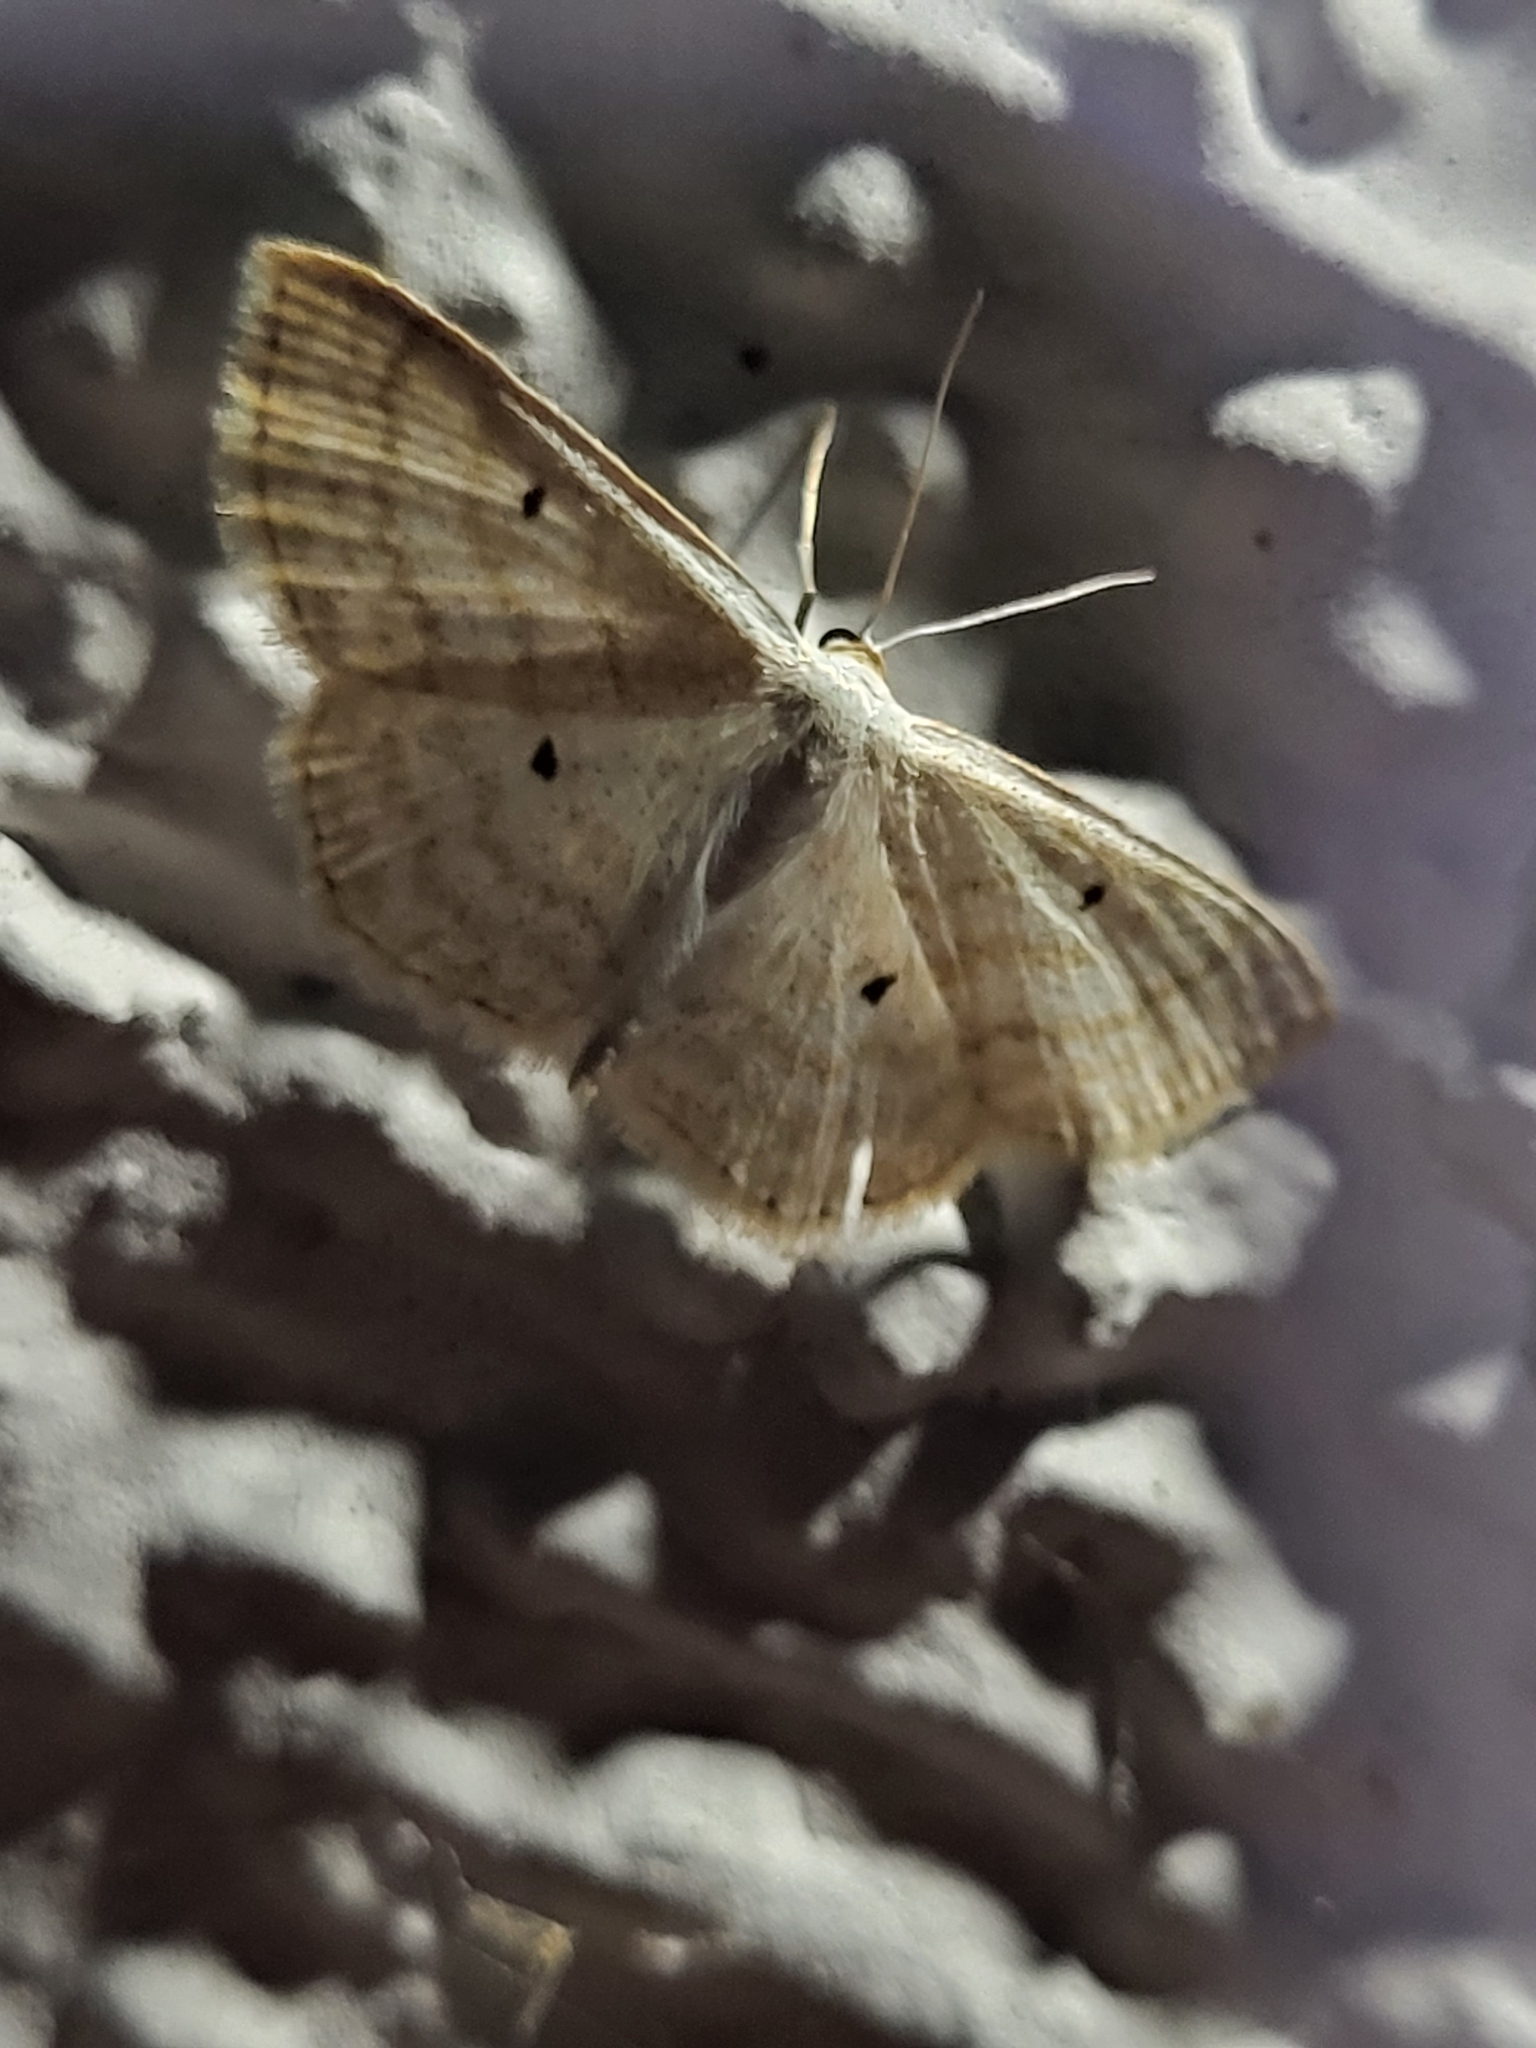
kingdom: Animalia
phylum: Arthropoda
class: Insecta
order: Lepidoptera
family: Geometridae
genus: Scopula
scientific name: Scopula immutata
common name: Lesser cream wave
